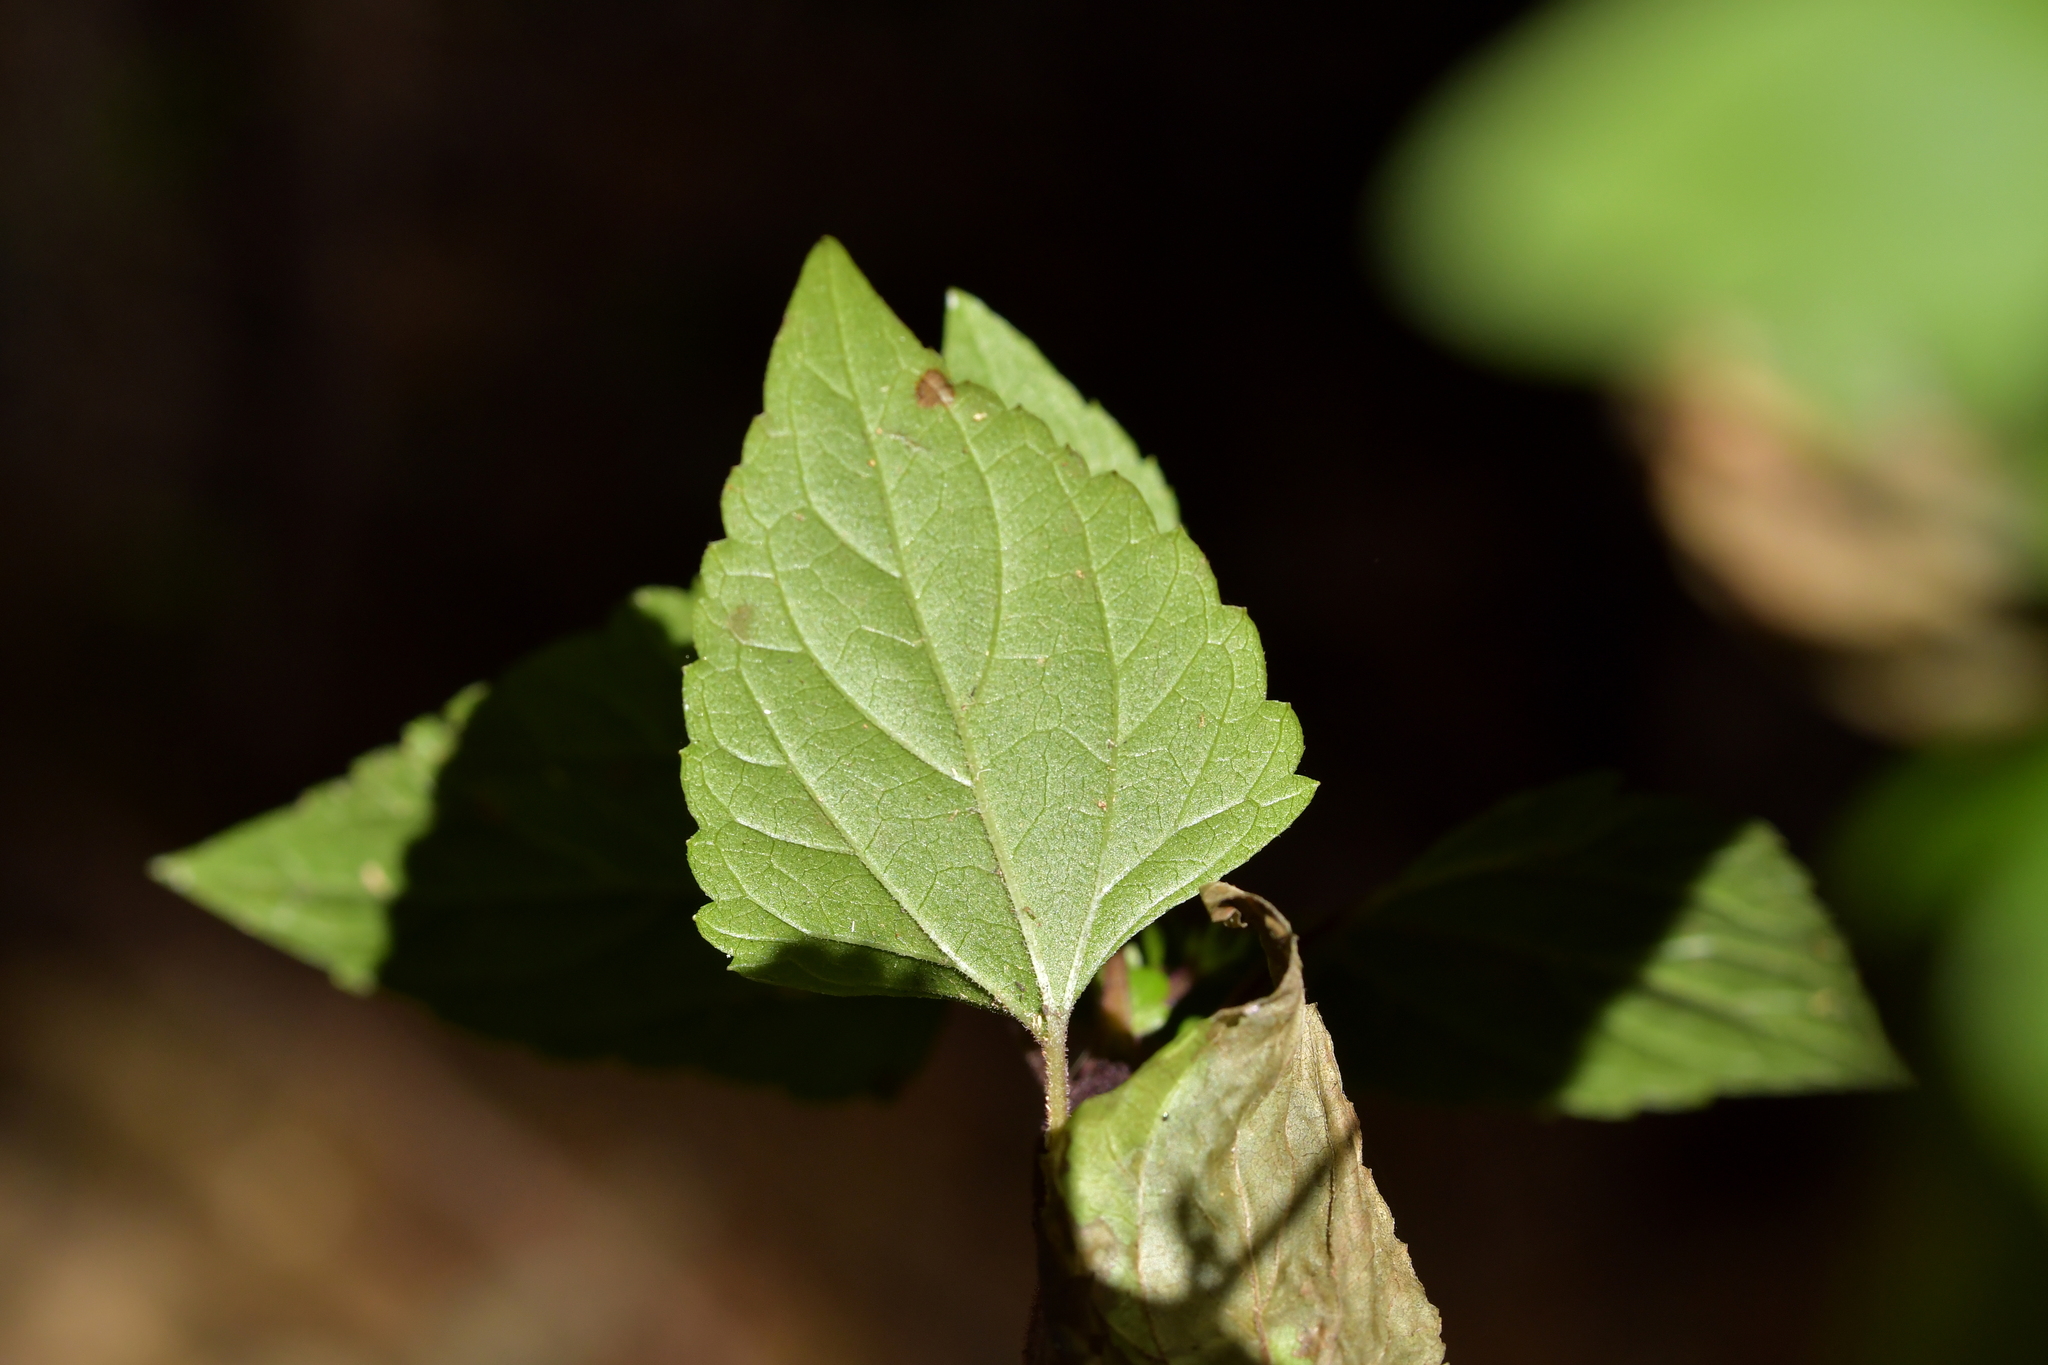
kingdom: Plantae
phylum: Tracheophyta
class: Magnoliopsida
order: Asterales
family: Asteraceae
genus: Ageratina
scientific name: Ageratina adenophora
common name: Sticky snakeroot
